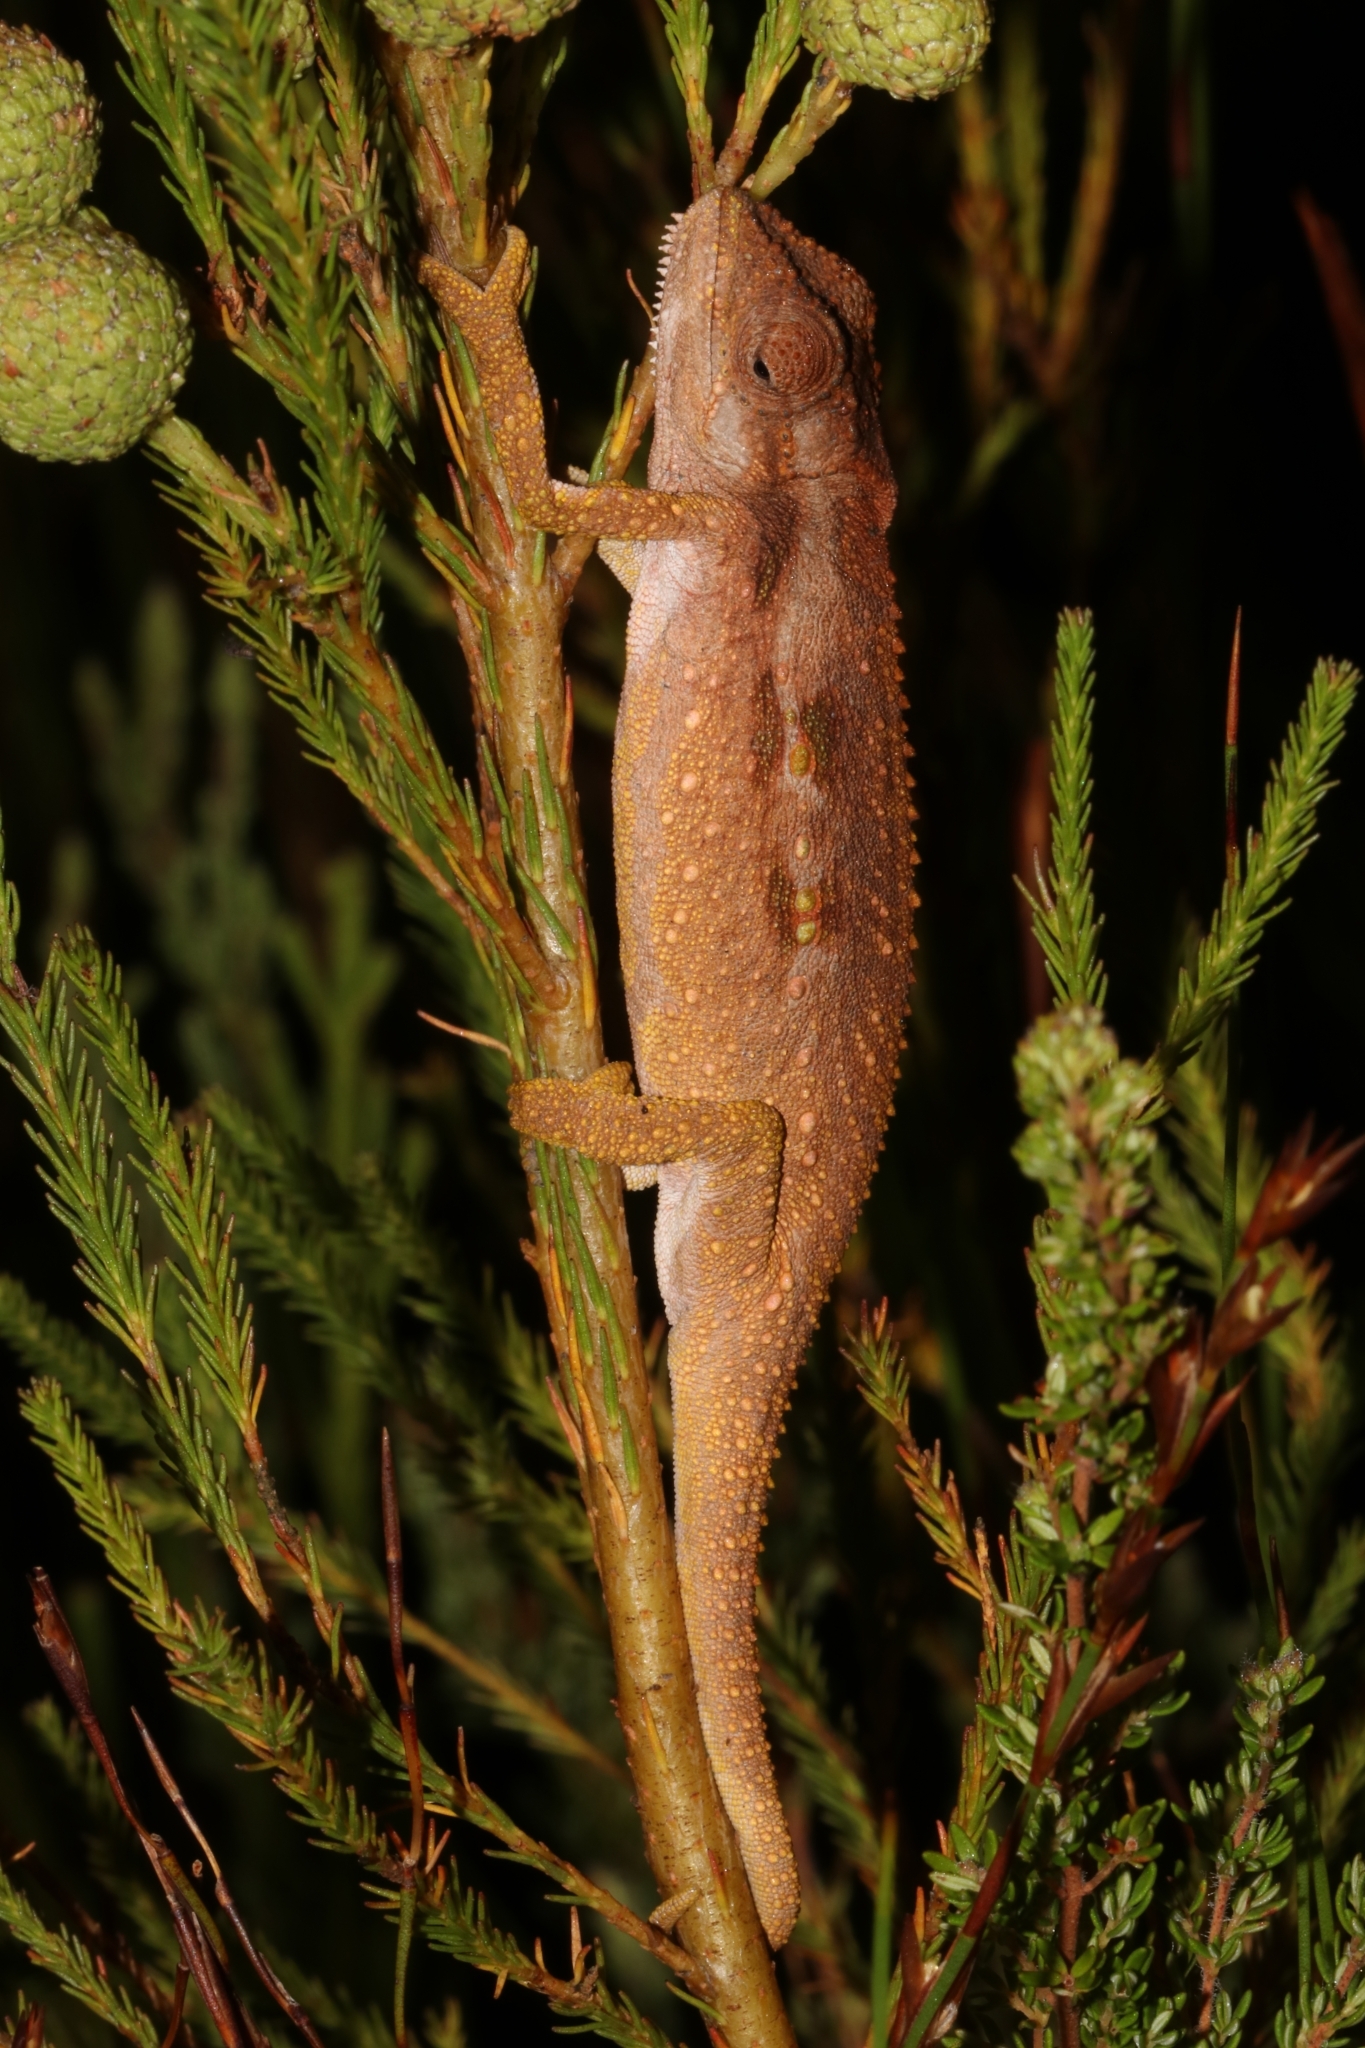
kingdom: Animalia
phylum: Chordata
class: Squamata
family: Chamaeleonidae
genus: Bradypodion
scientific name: Bradypodion gutturale
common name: Little karoo dwarf chameleon
